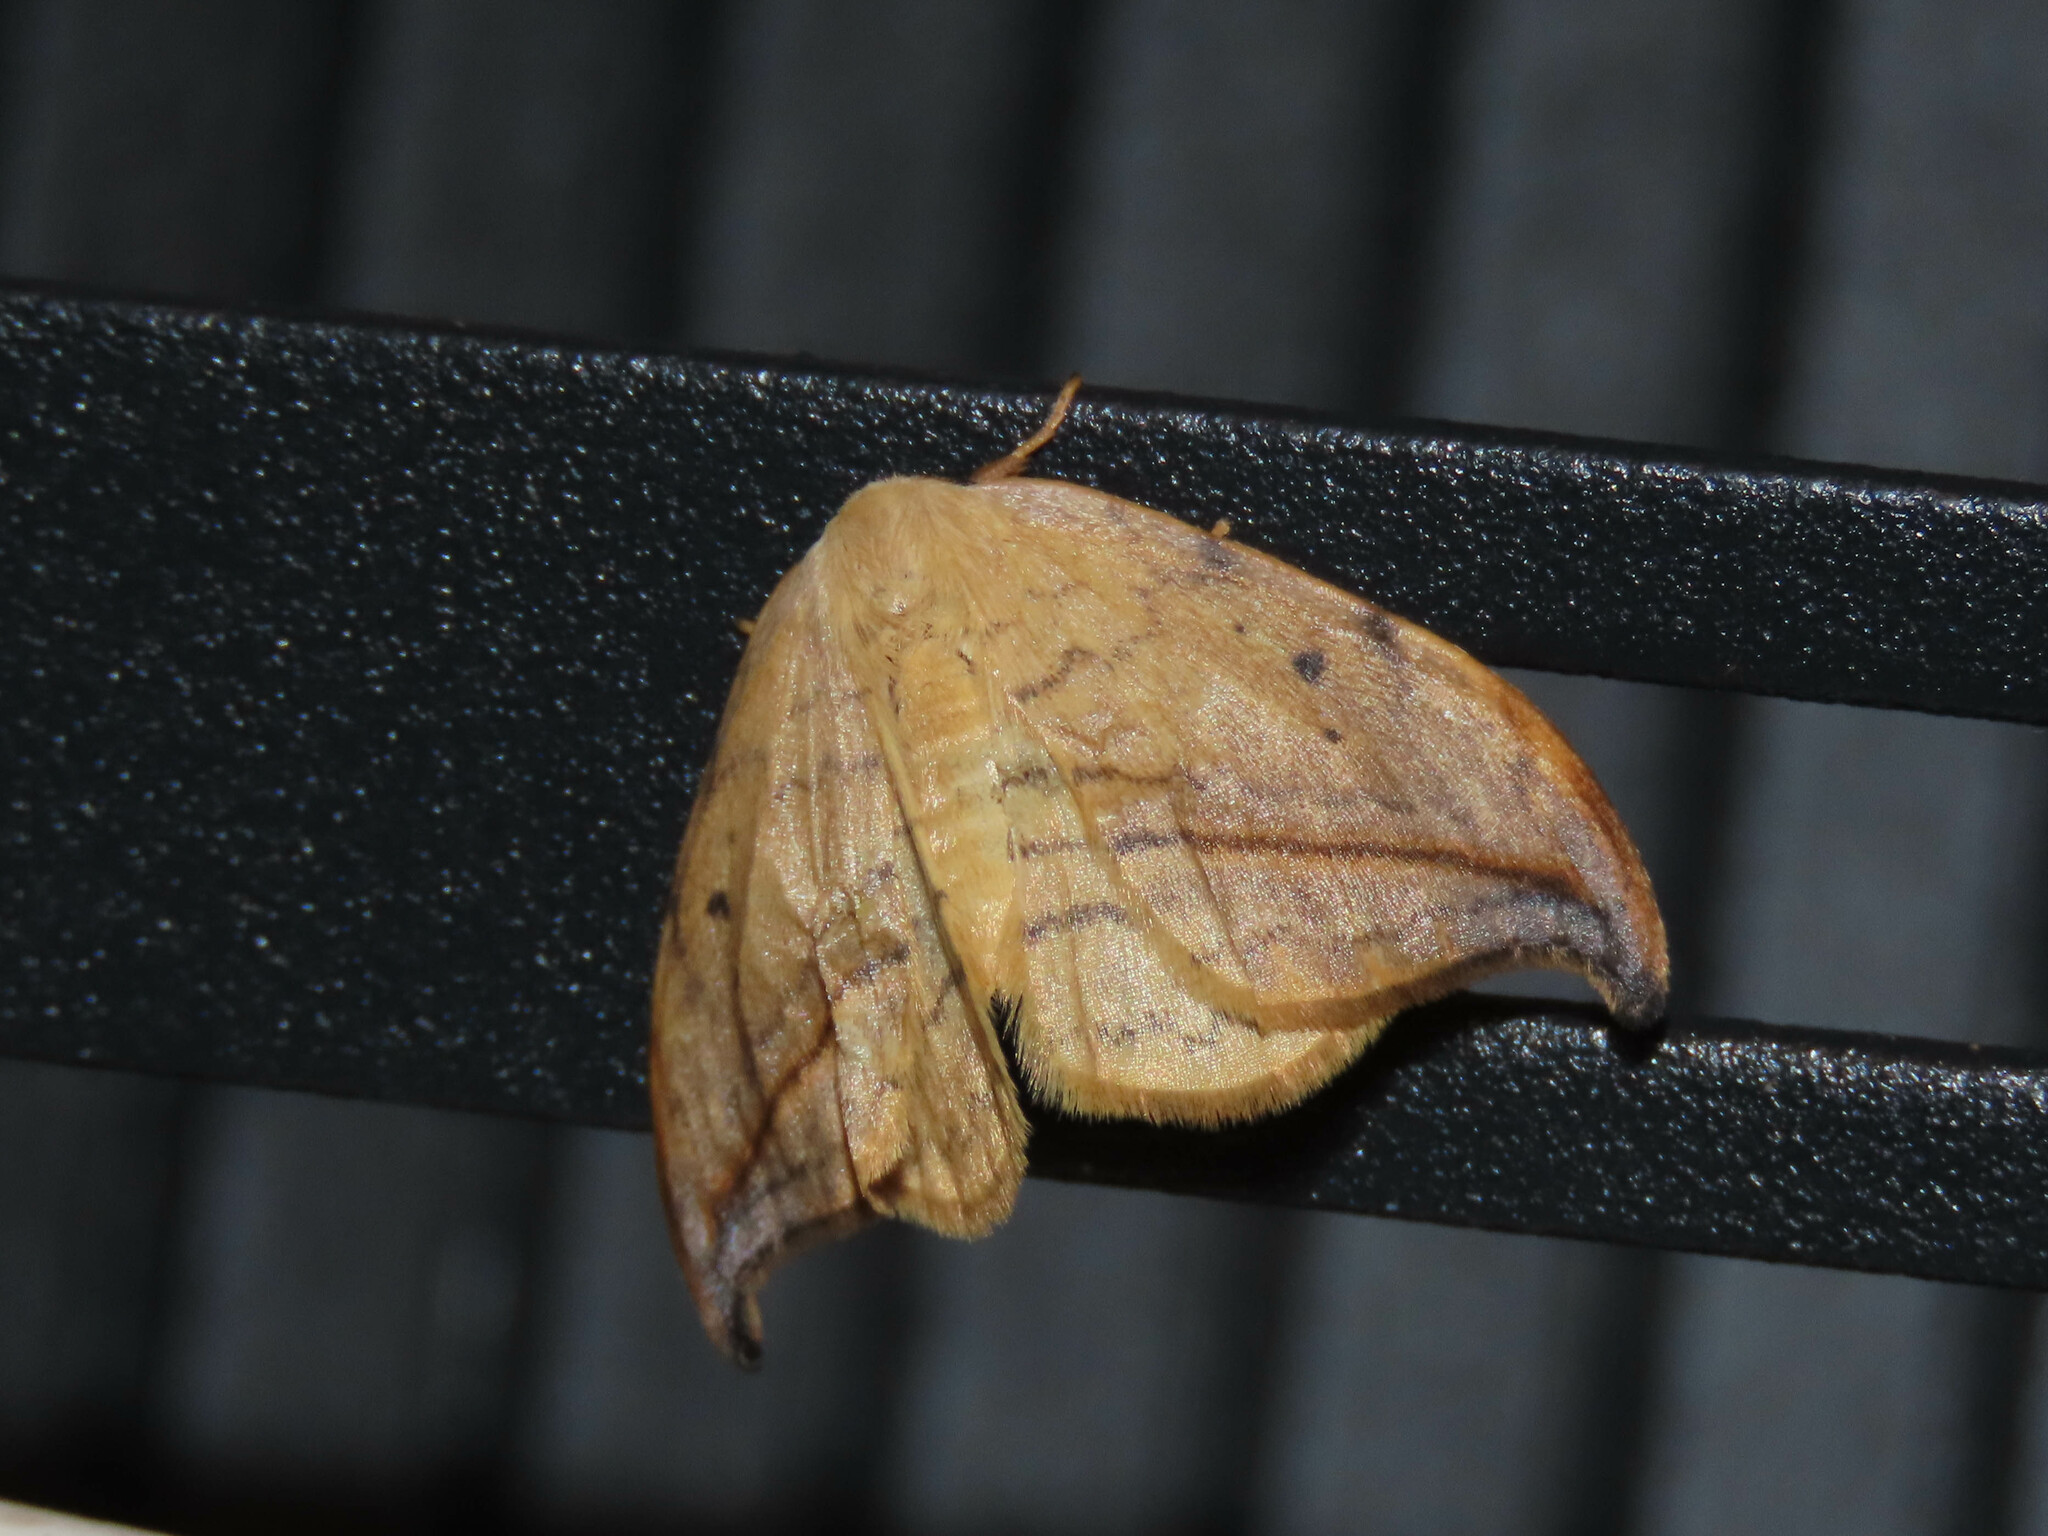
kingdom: Animalia
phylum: Arthropoda
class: Insecta
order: Lepidoptera
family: Drepanidae
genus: Drepana
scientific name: Drepana arcuata
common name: Arched hooktip moth
